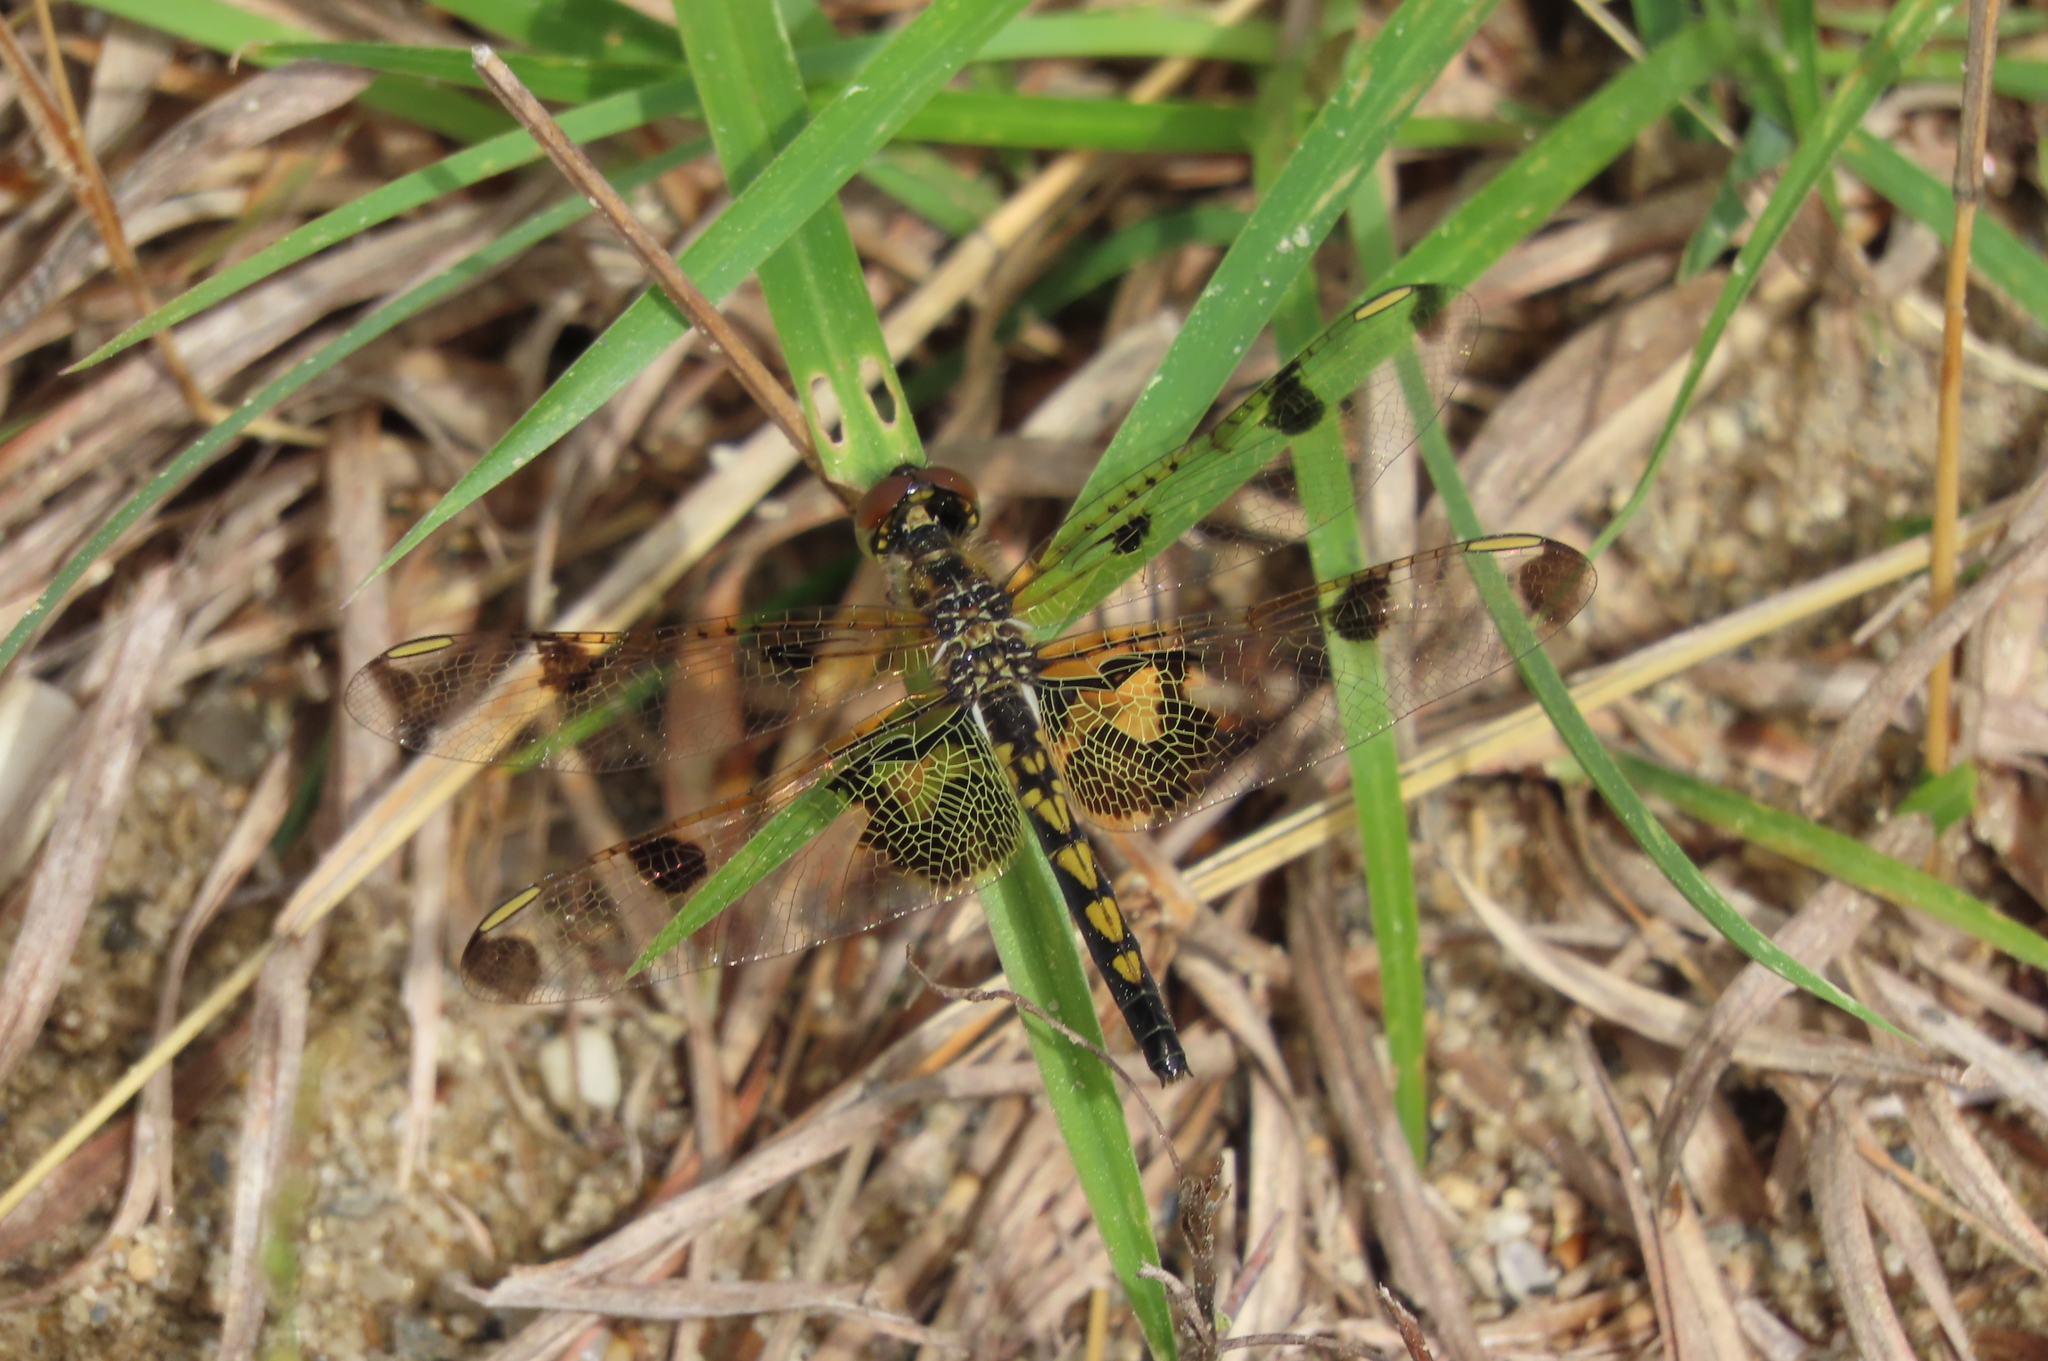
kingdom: Animalia
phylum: Arthropoda
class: Insecta
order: Odonata
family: Libellulidae
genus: Celithemis
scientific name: Celithemis elisa
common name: Calico pennant
